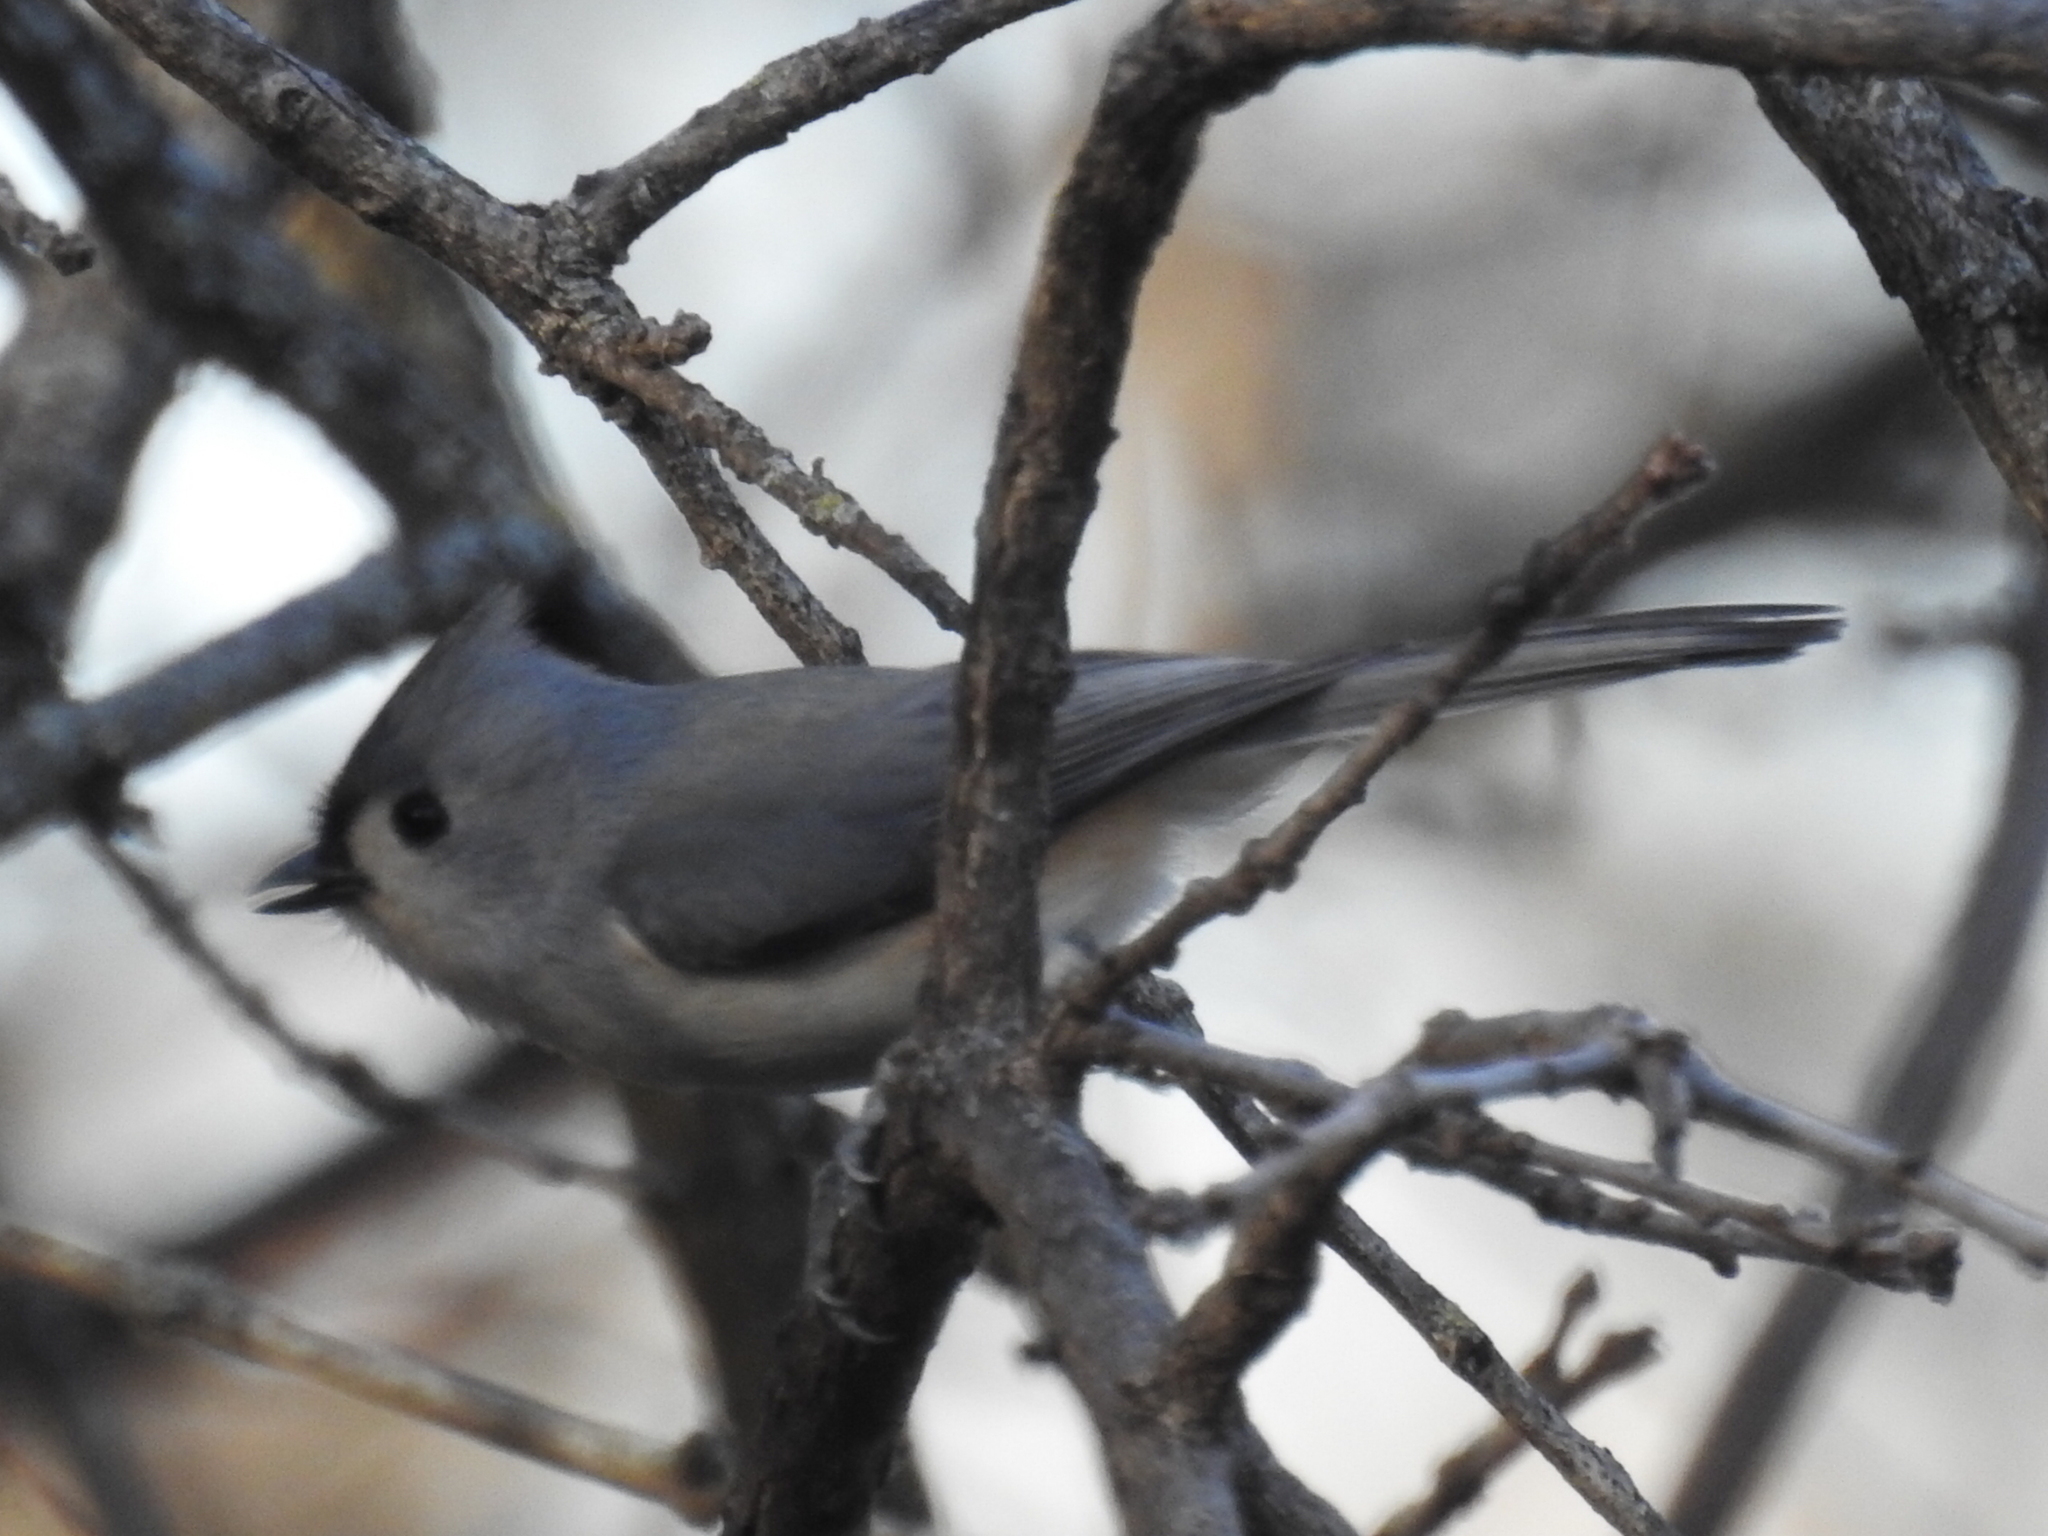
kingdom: Animalia
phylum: Chordata
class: Aves
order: Passeriformes
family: Paridae
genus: Baeolophus
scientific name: Baeolophus bicolor
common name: Tufted titmouse
